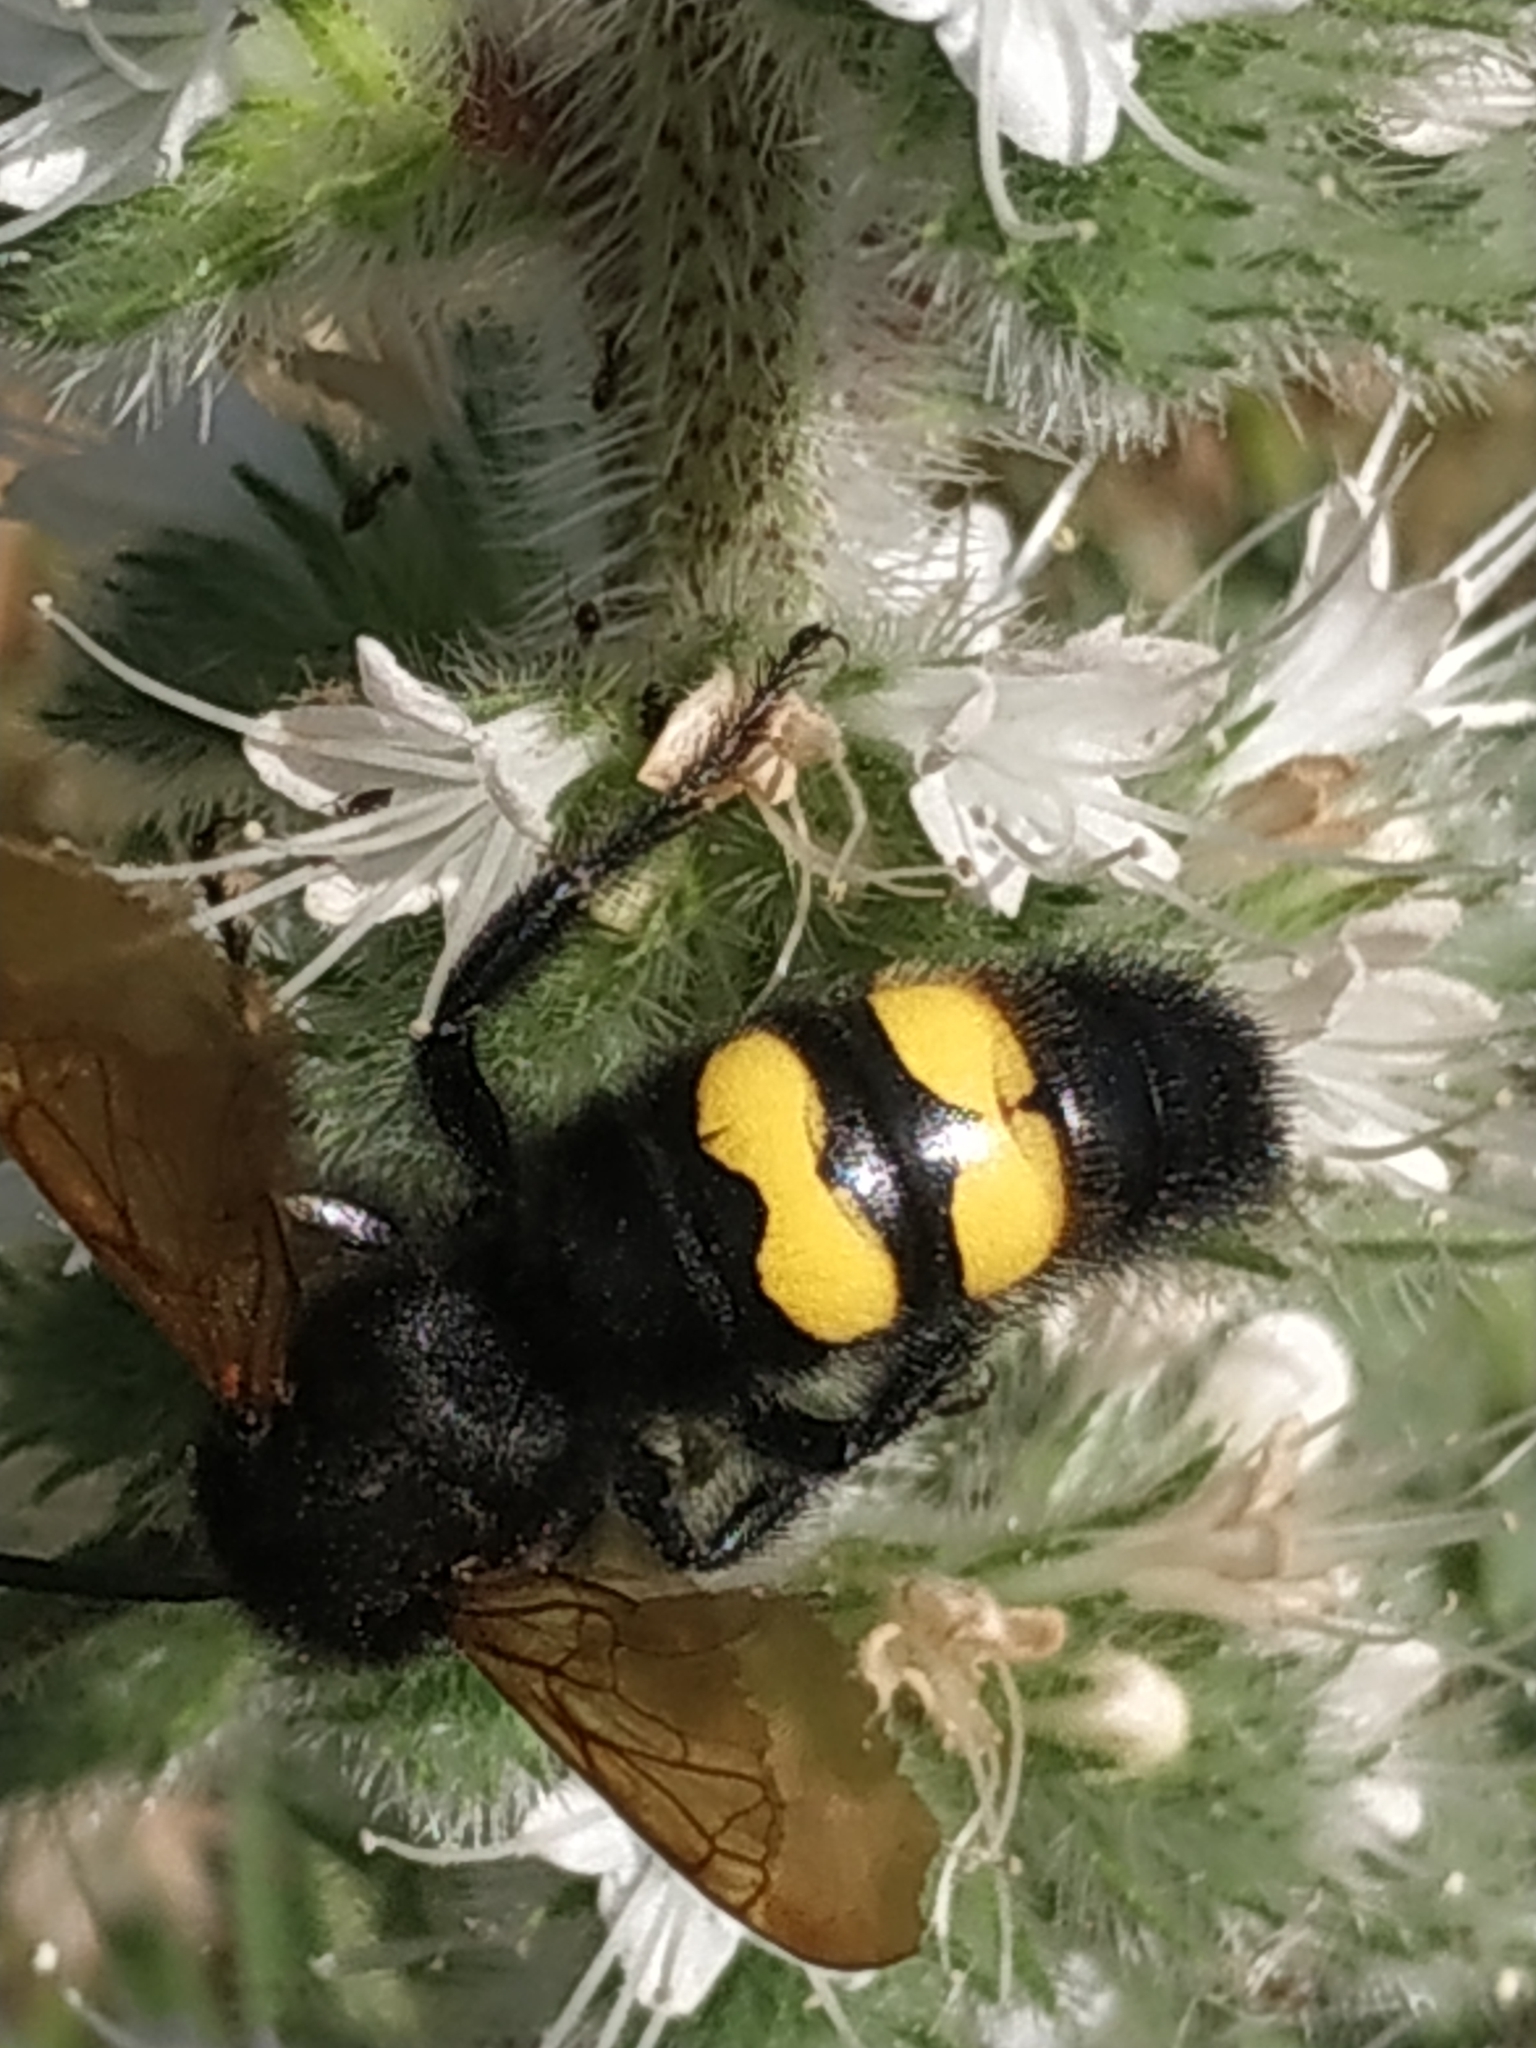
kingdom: Animalia
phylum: Arthropoda
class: Insecta
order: Hymenoptera
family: Scoliidae
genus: Megascolia
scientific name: Megascolia maculata
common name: Mammoth wasp
